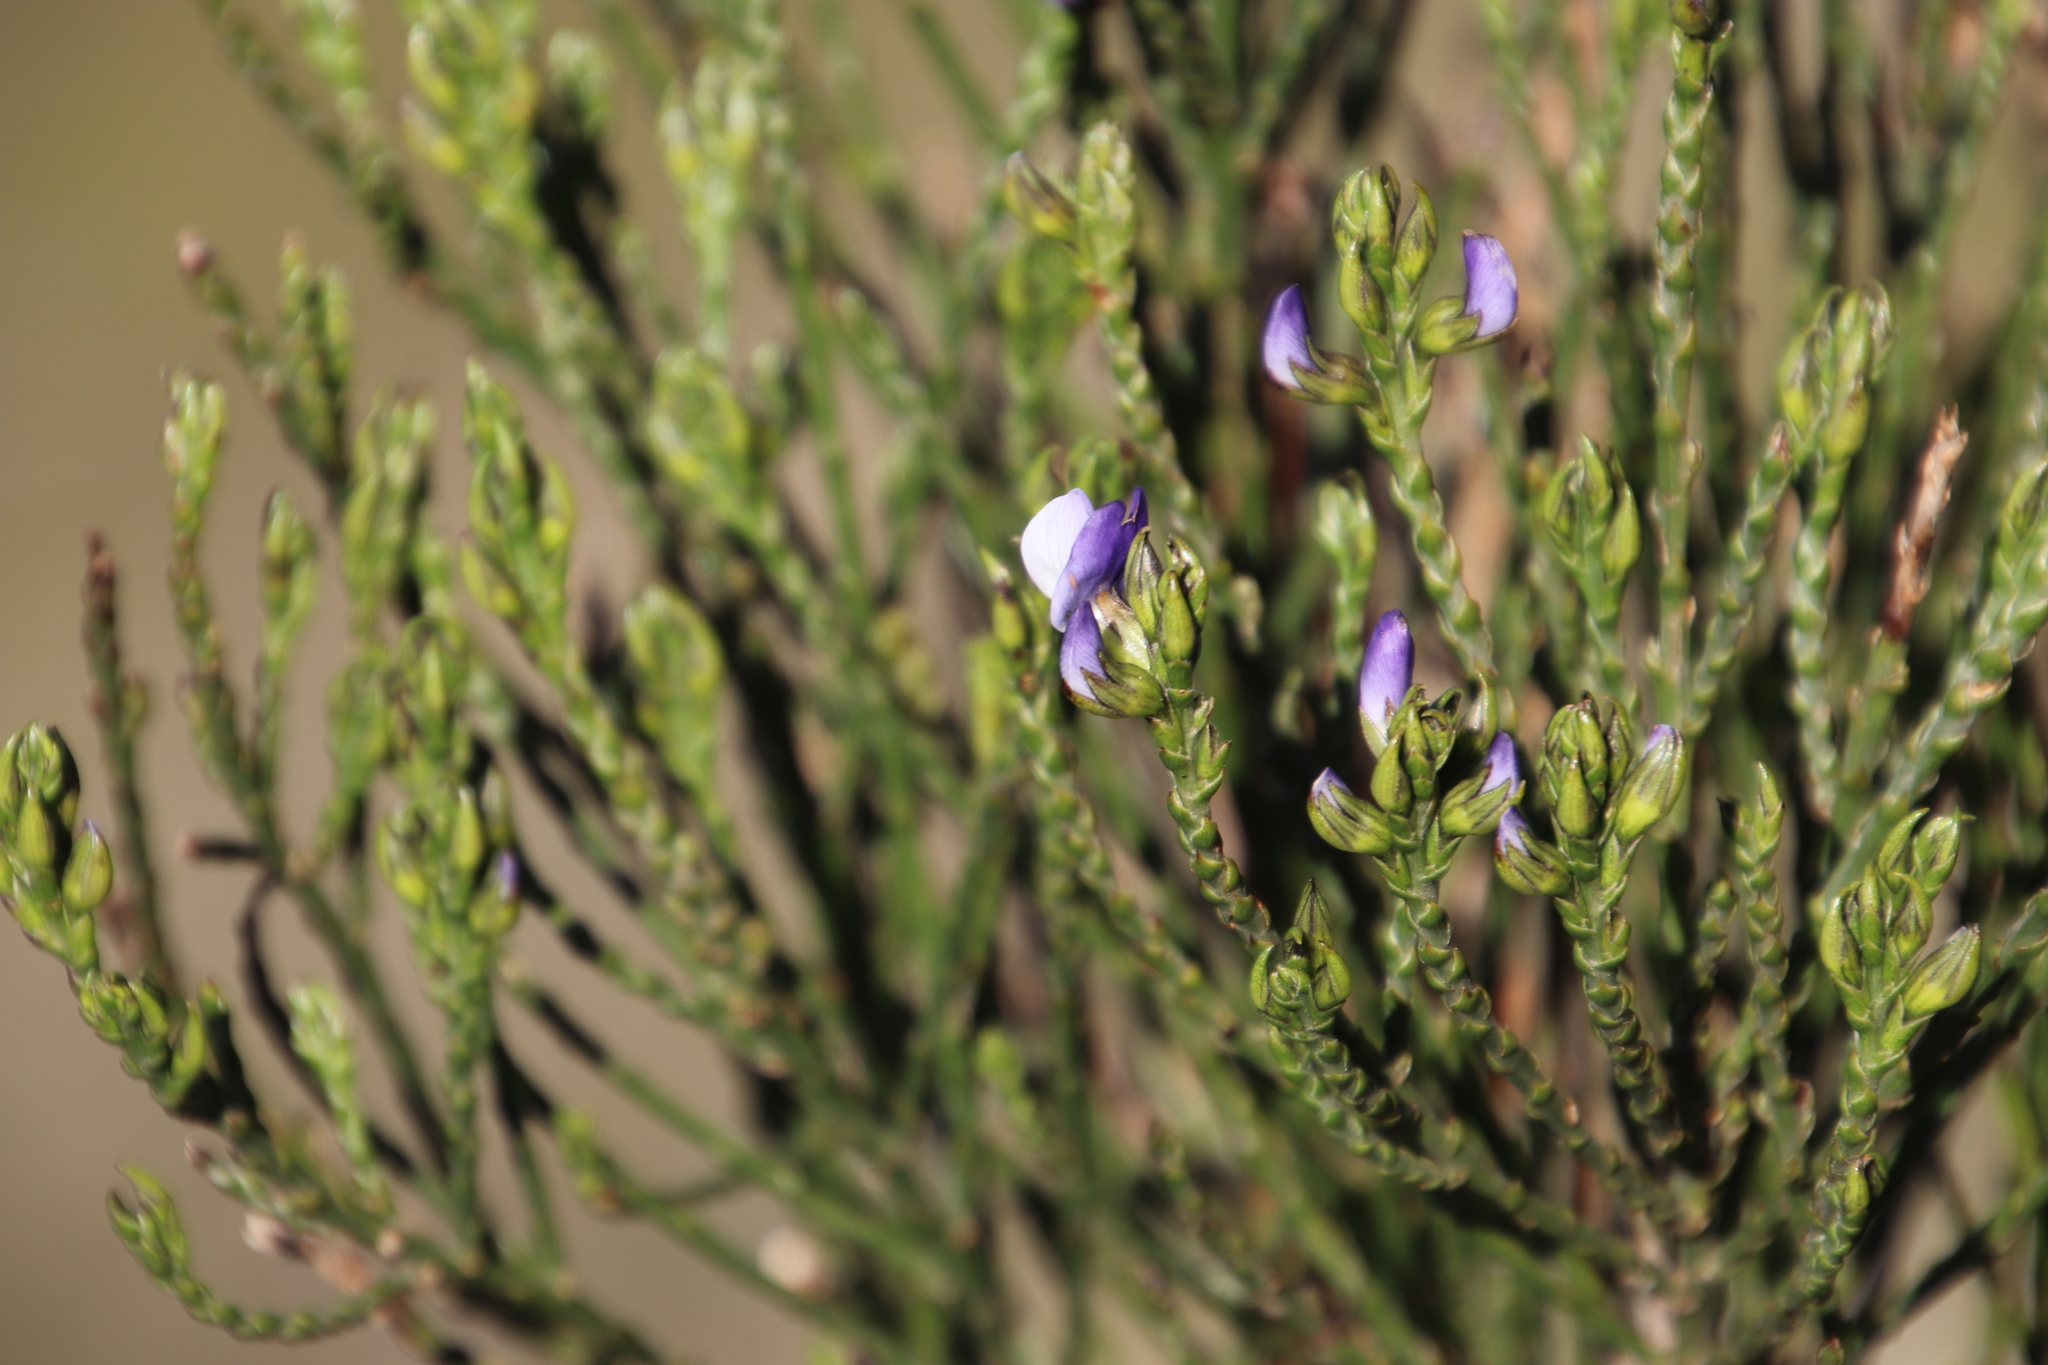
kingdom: Plantae
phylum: Tracheophyta
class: Magnoliopsida
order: Fabales
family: Fabaceae
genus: Psoralea
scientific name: Psoralea congesta
